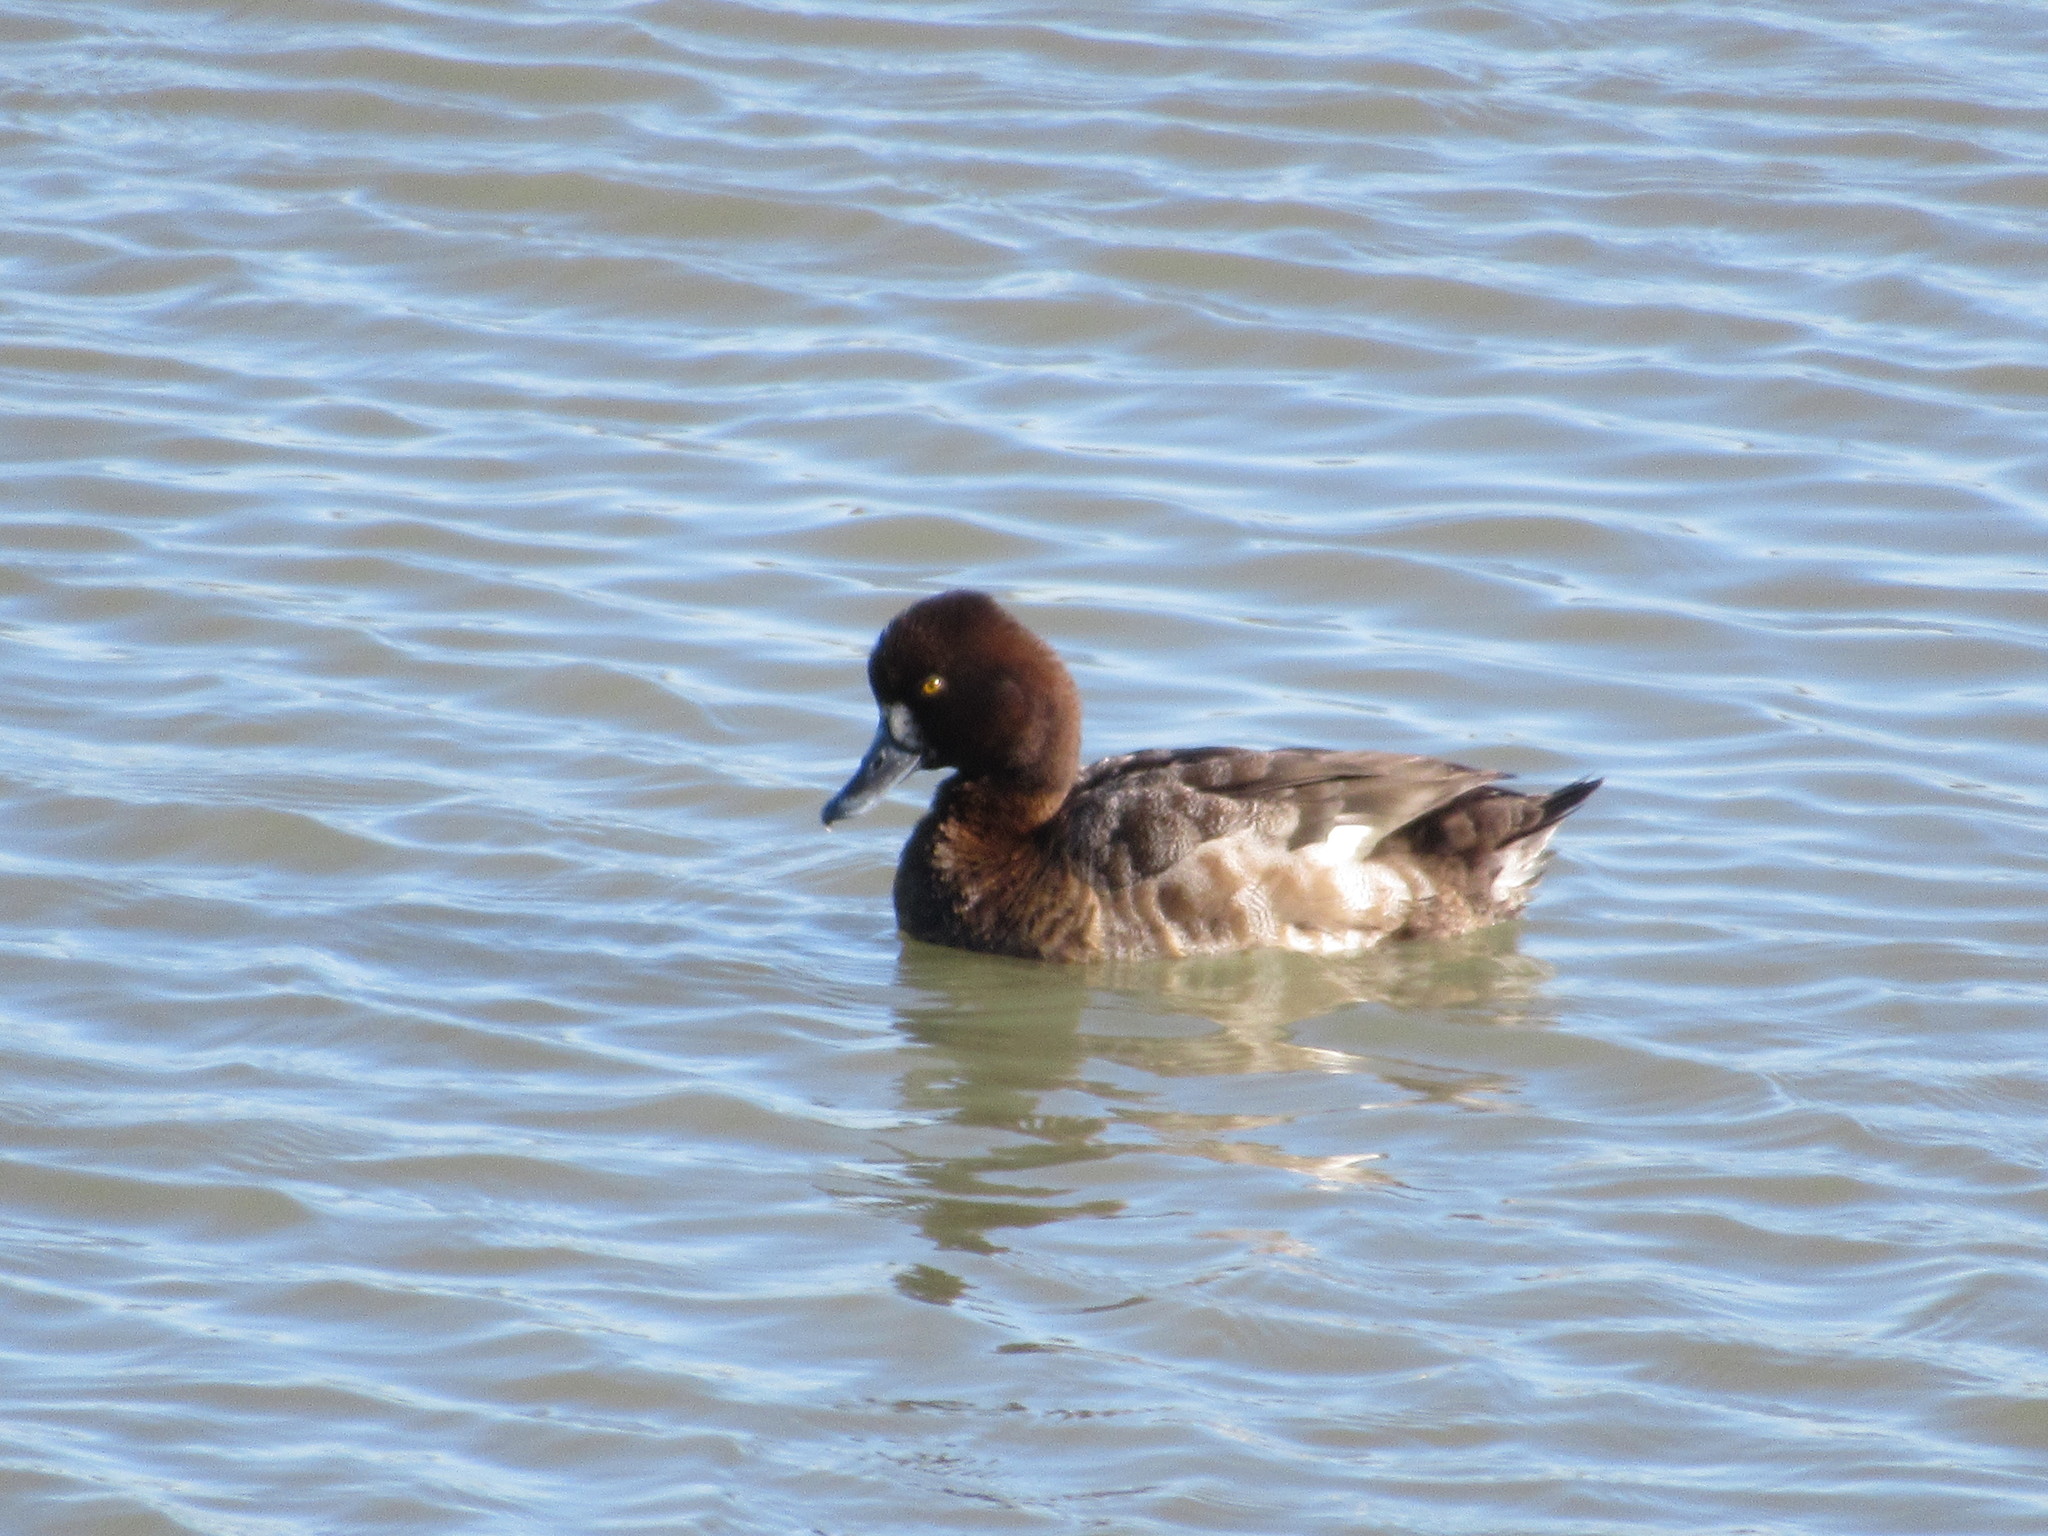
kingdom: Animalia
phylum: Chordata
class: Aves
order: Anseriformes
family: Anatidae
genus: Aythya
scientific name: Aythya affinis
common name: Lesser scaup
